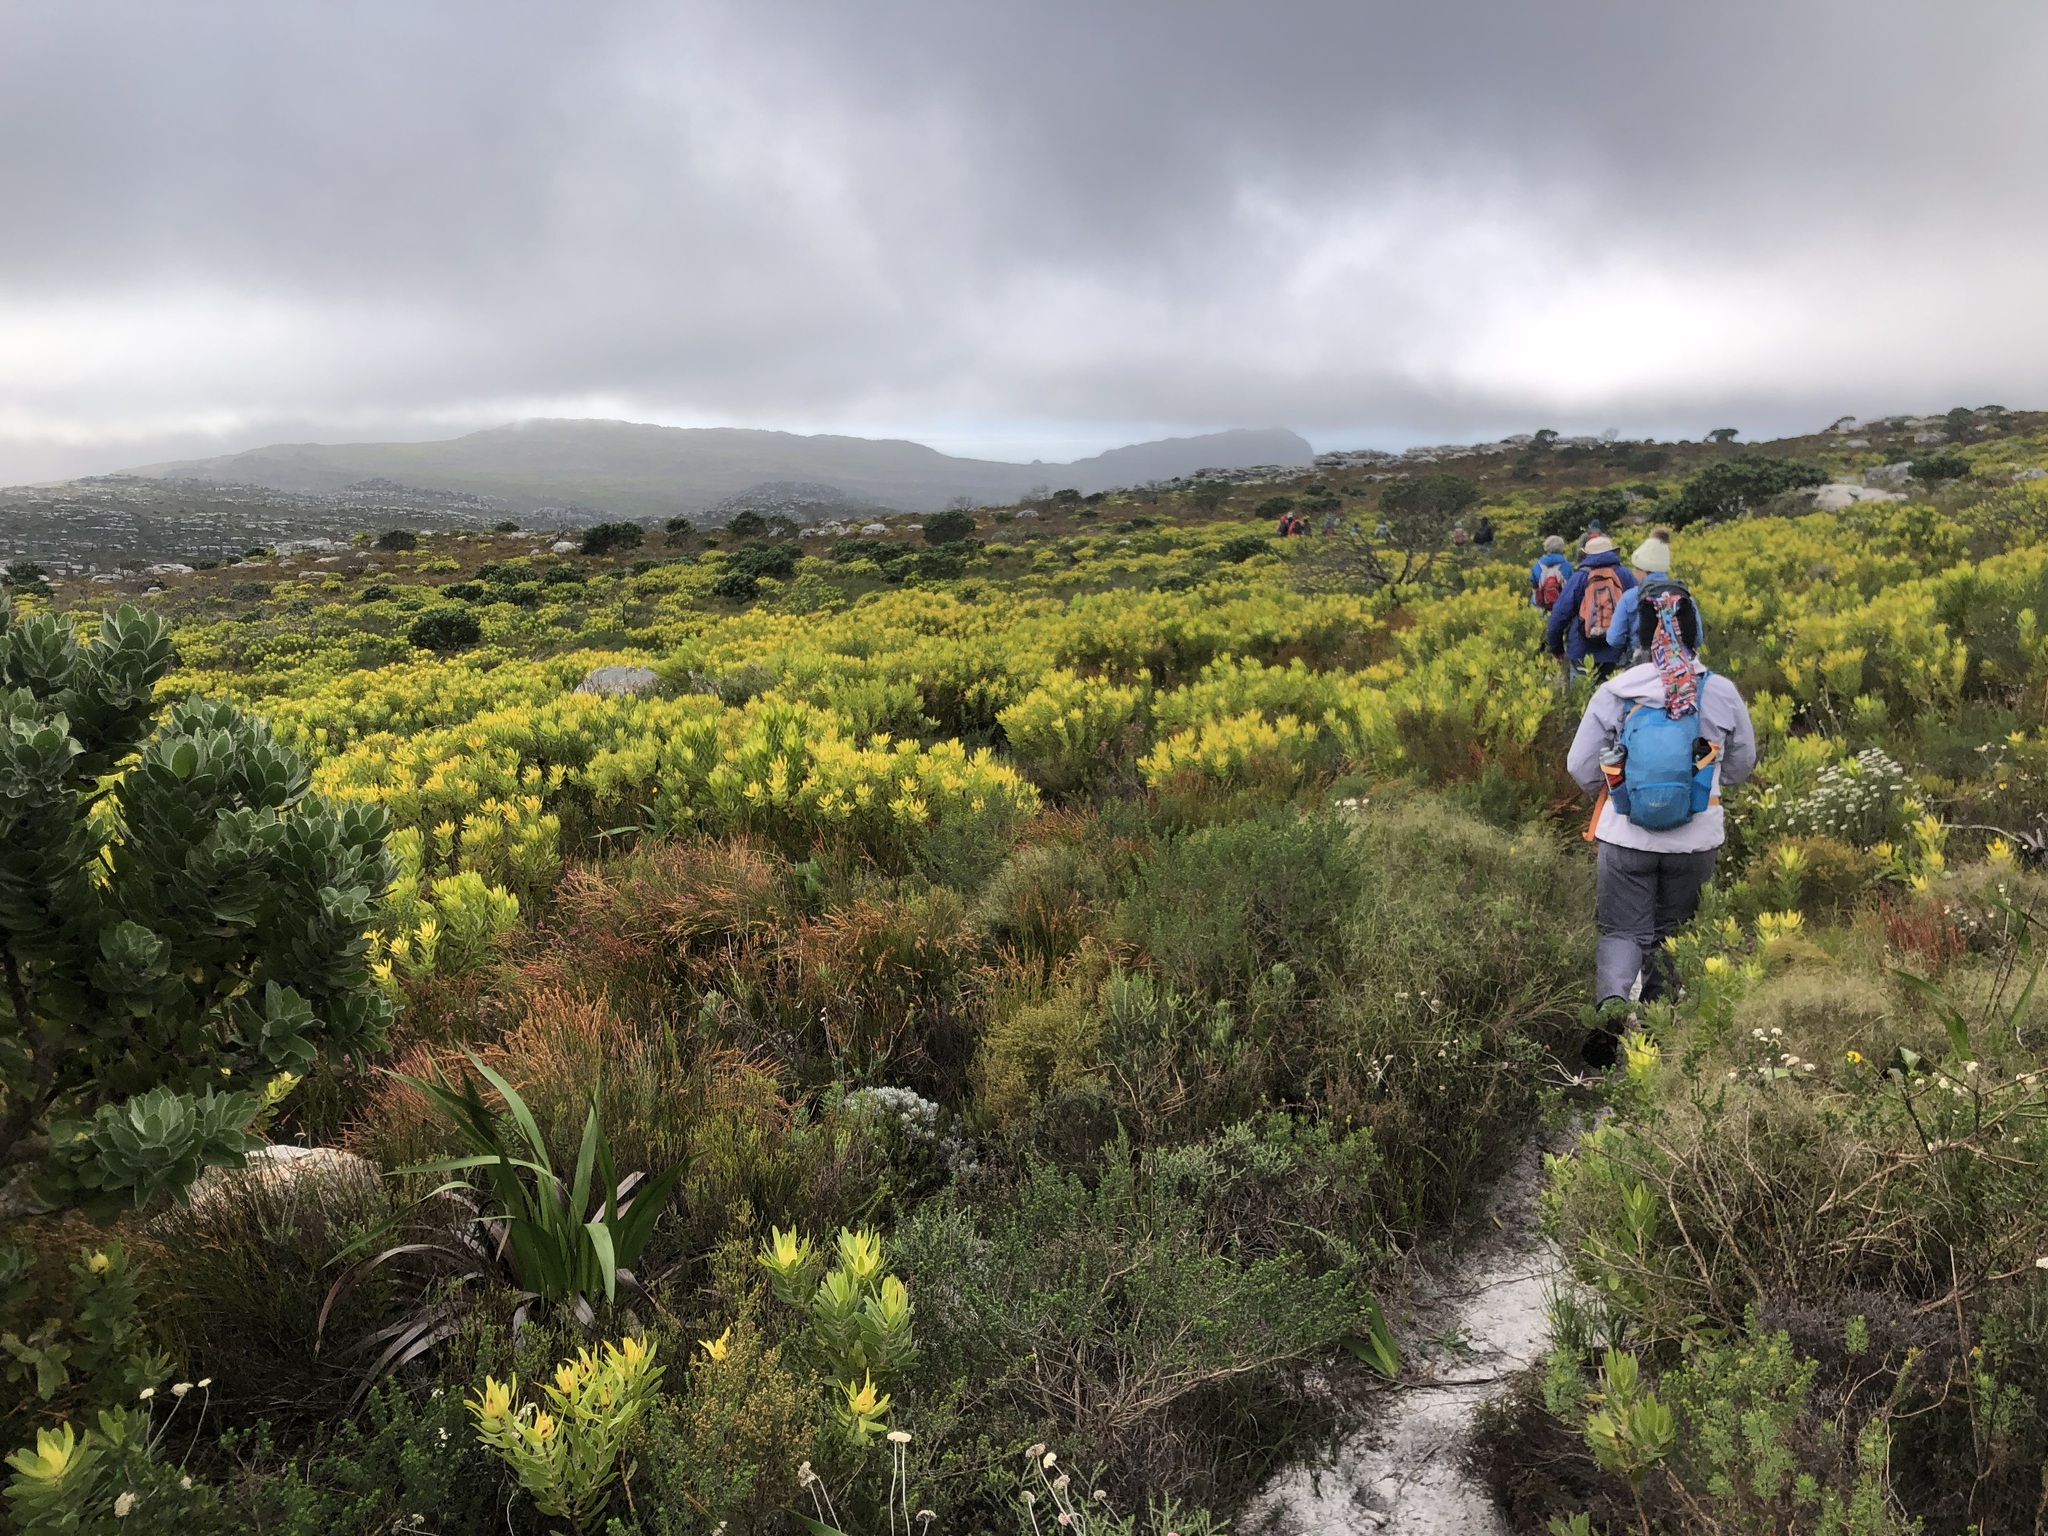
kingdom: Plantae
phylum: Tracheophyta
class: Liliopsida
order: Poales
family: Restionaceae
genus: Elegia
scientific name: Elegia stipularis
